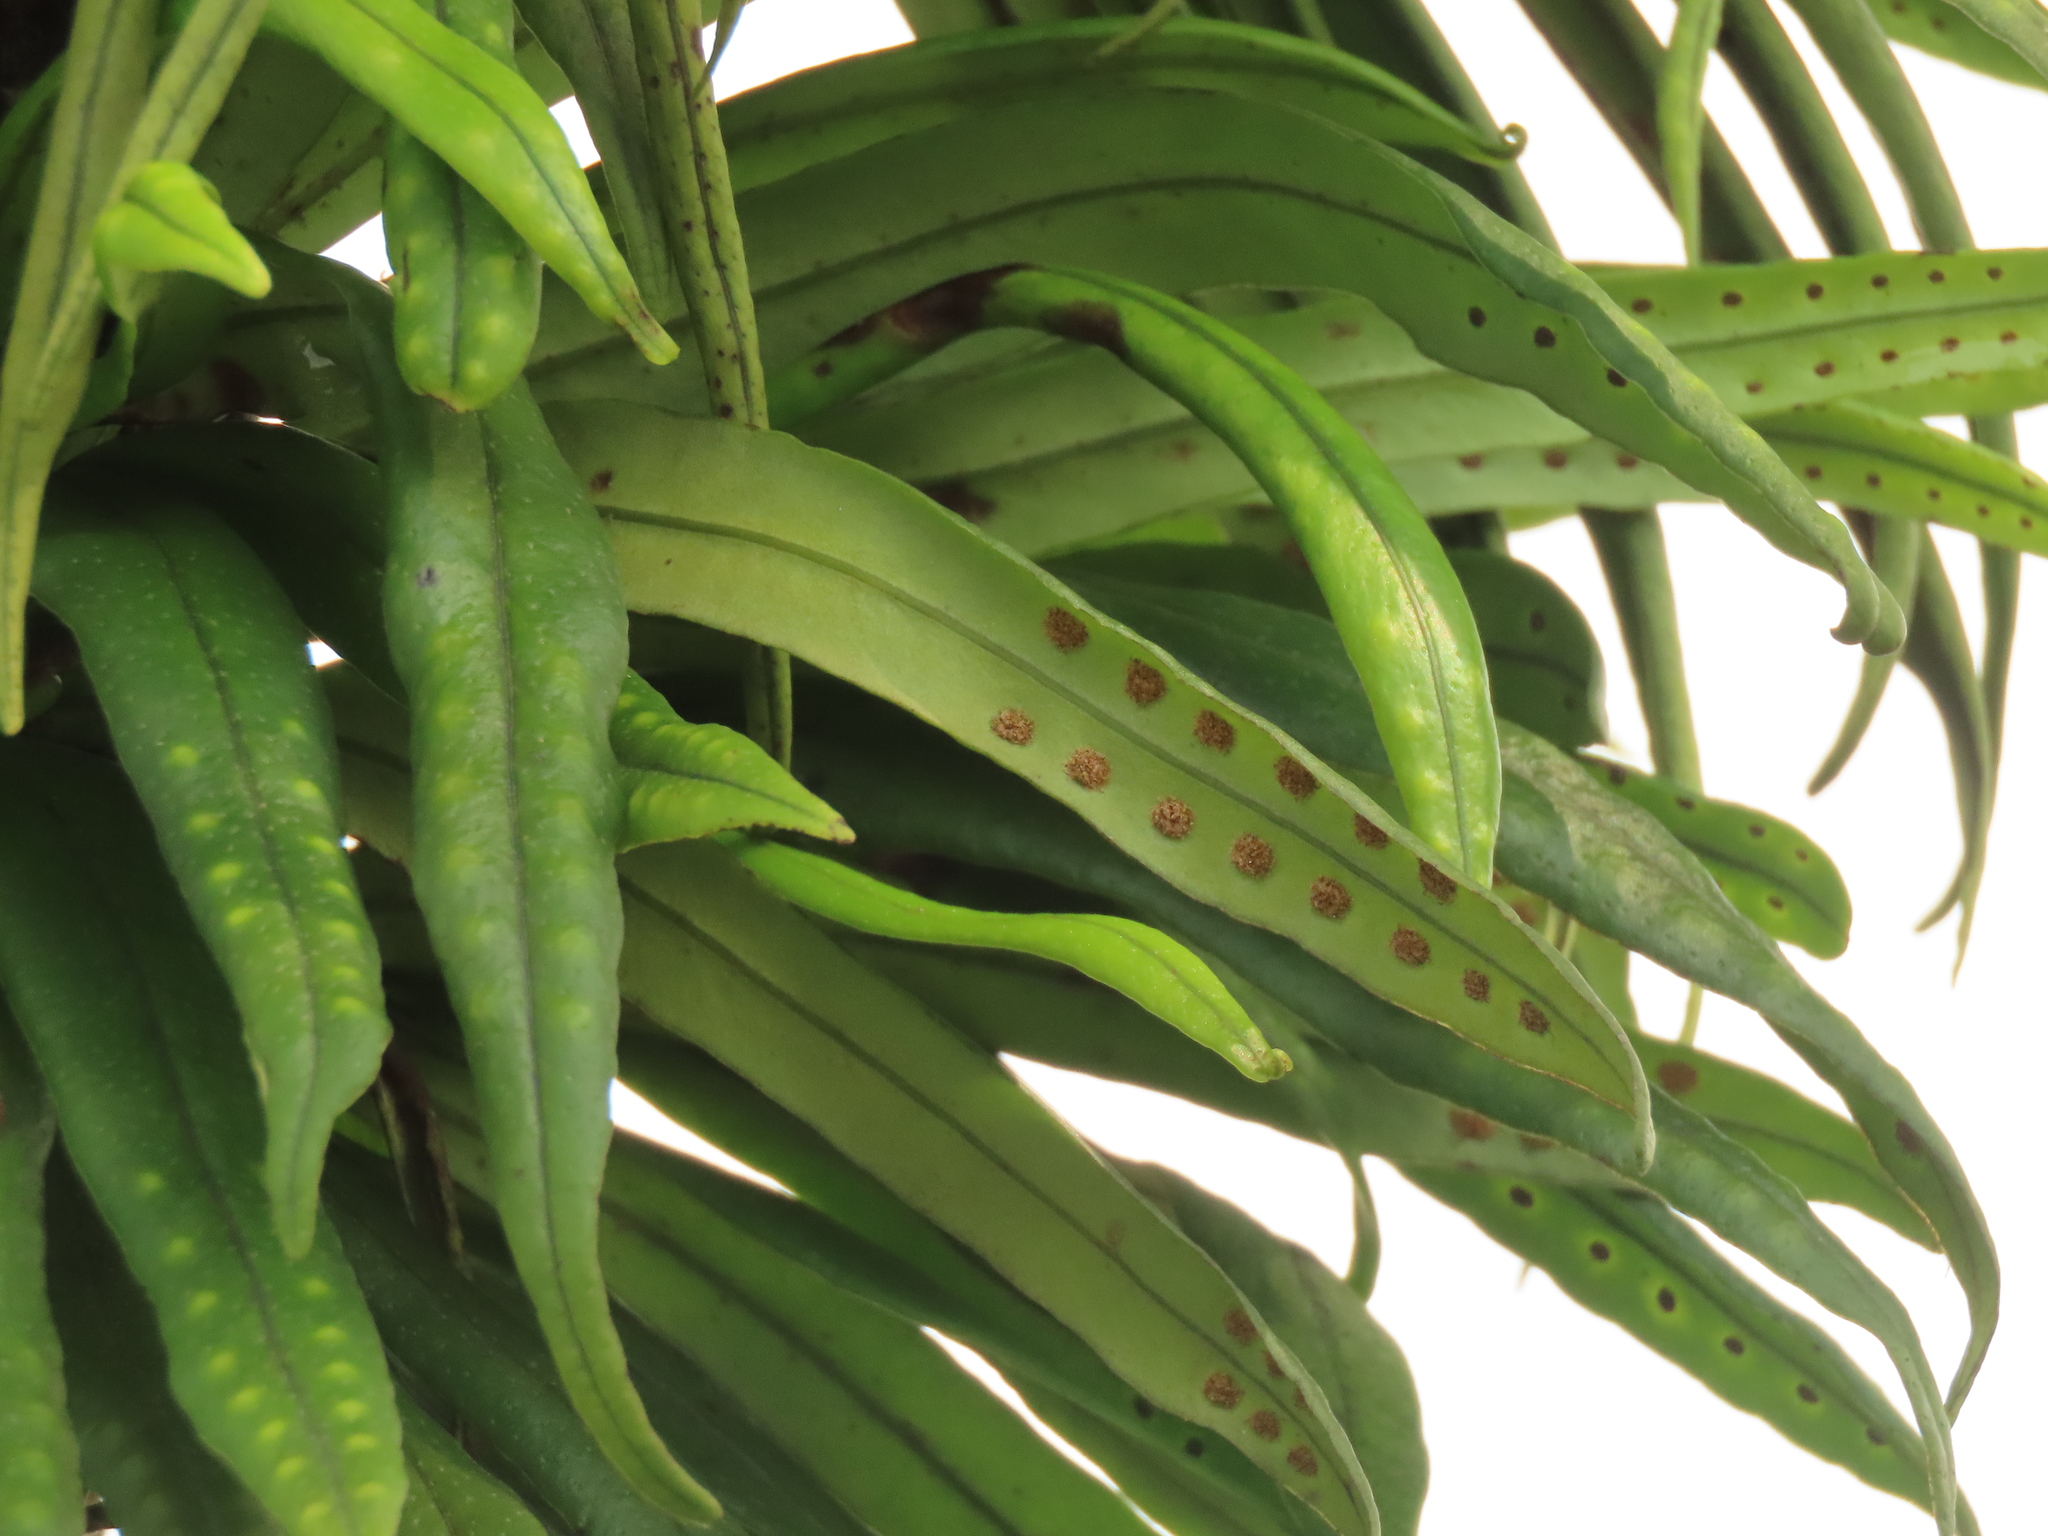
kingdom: Plantae
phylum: Tracheophyta
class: Polypodiopsida
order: Polypodiales
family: Polypodiaceae
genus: Lepisorus
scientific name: Lepisorus thunbergianus
